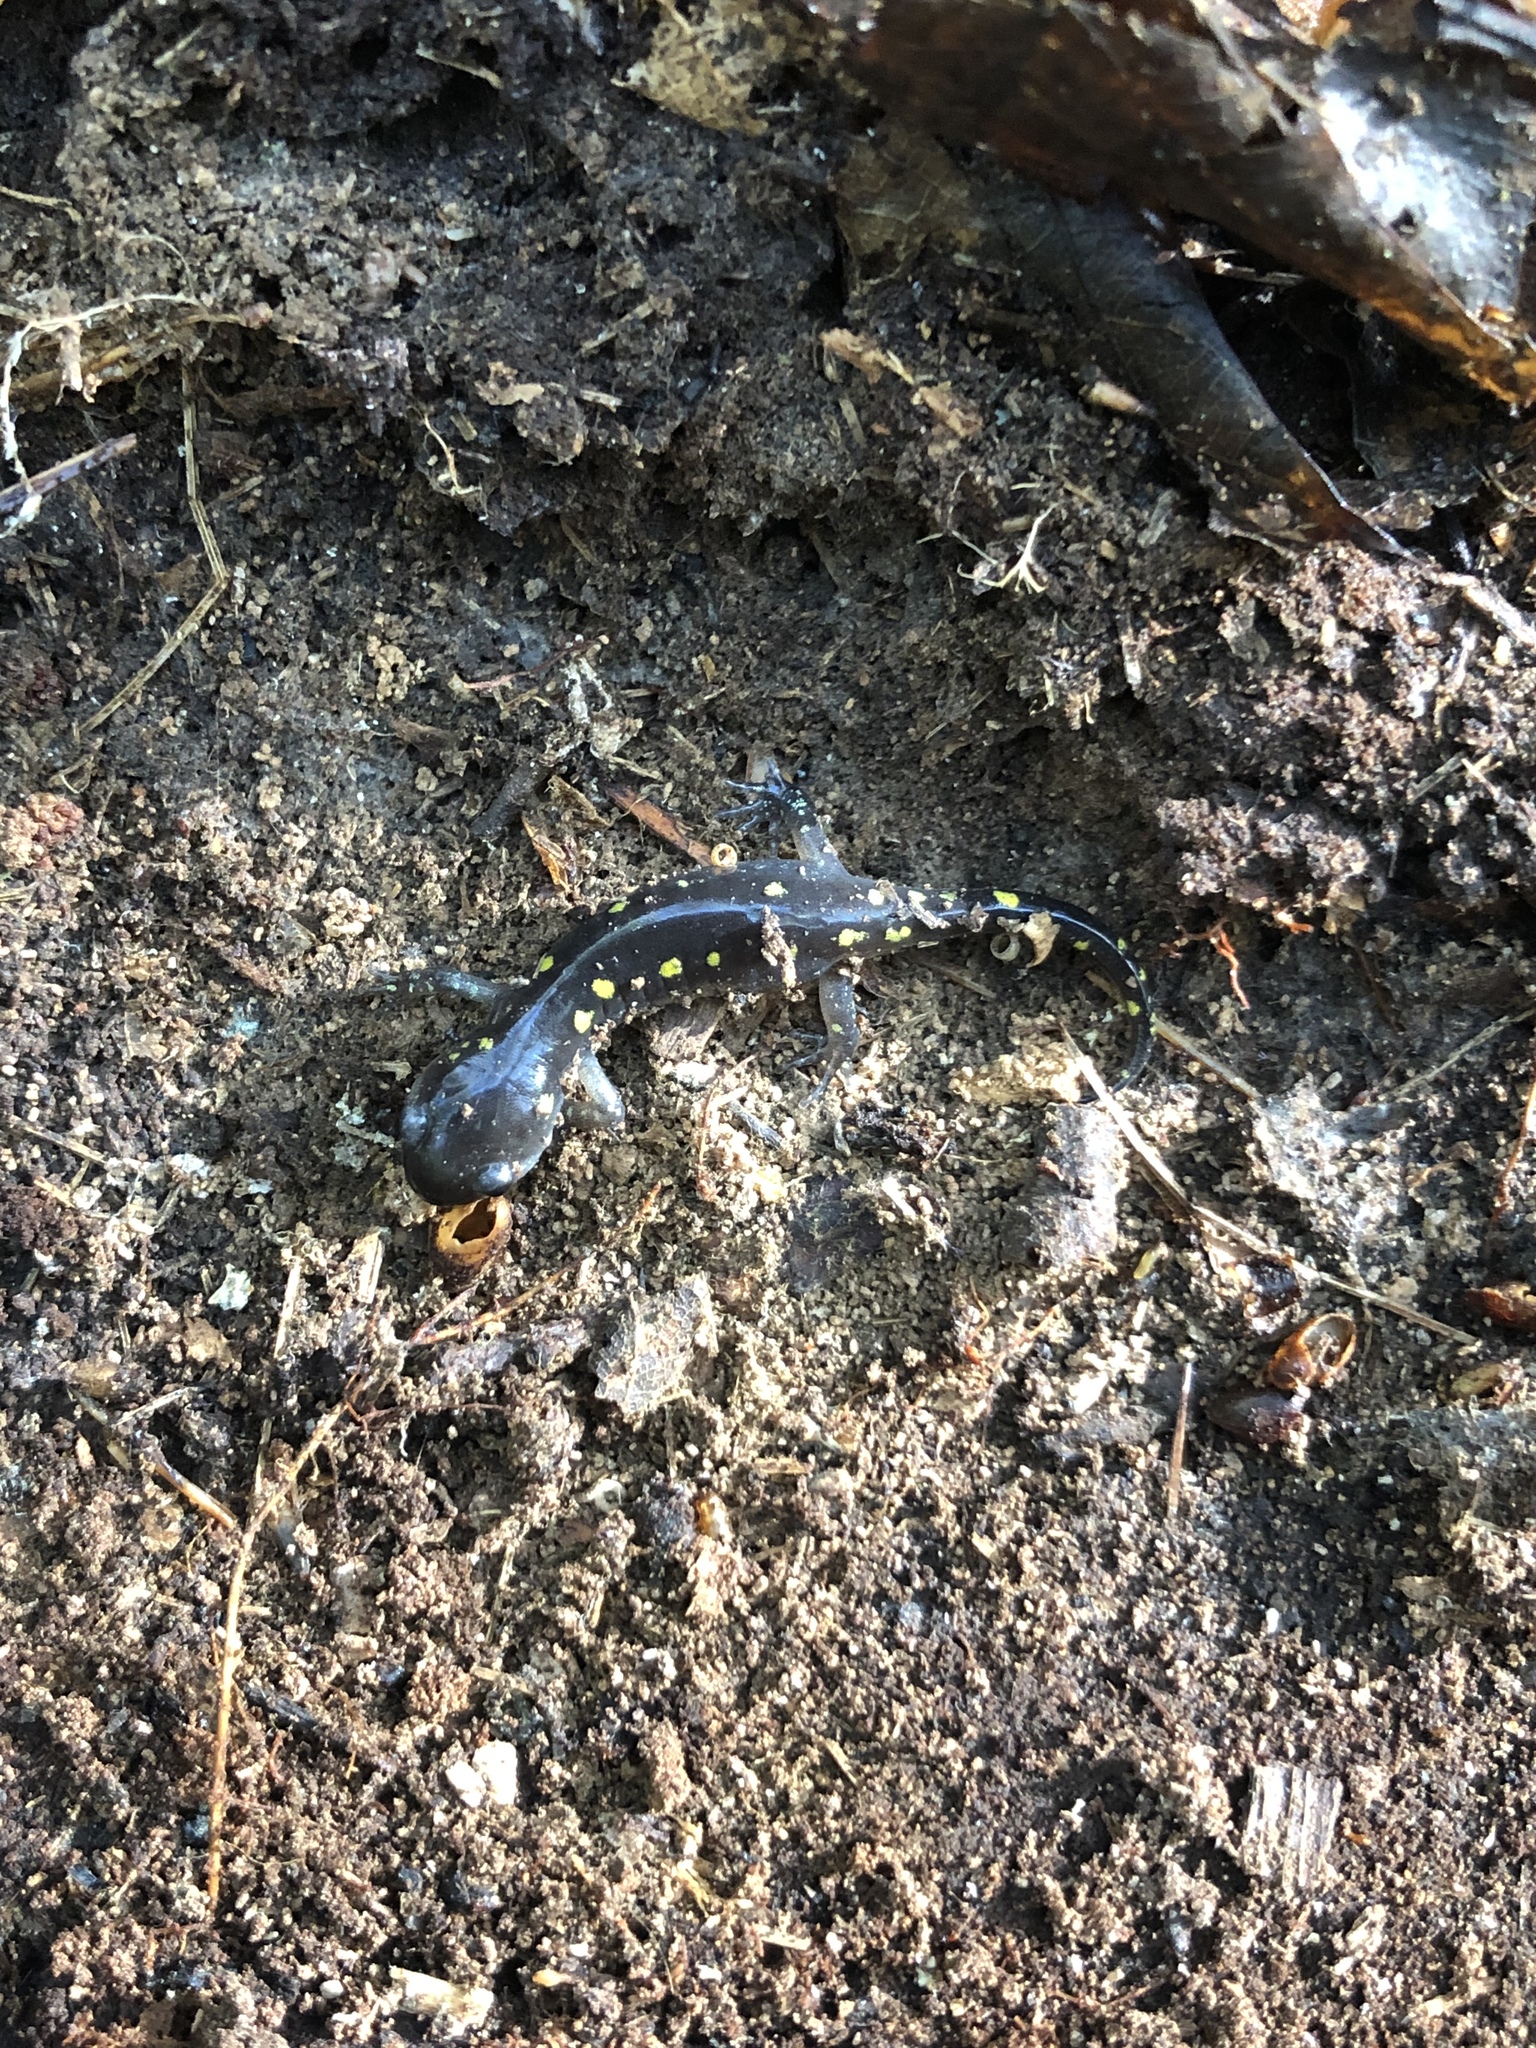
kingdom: Animalia
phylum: Chordata
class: Amphibia
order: Caudata
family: Ambystomatidae
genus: Ambystoma
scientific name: Ambystoma maculatum
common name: Spotted salamander
